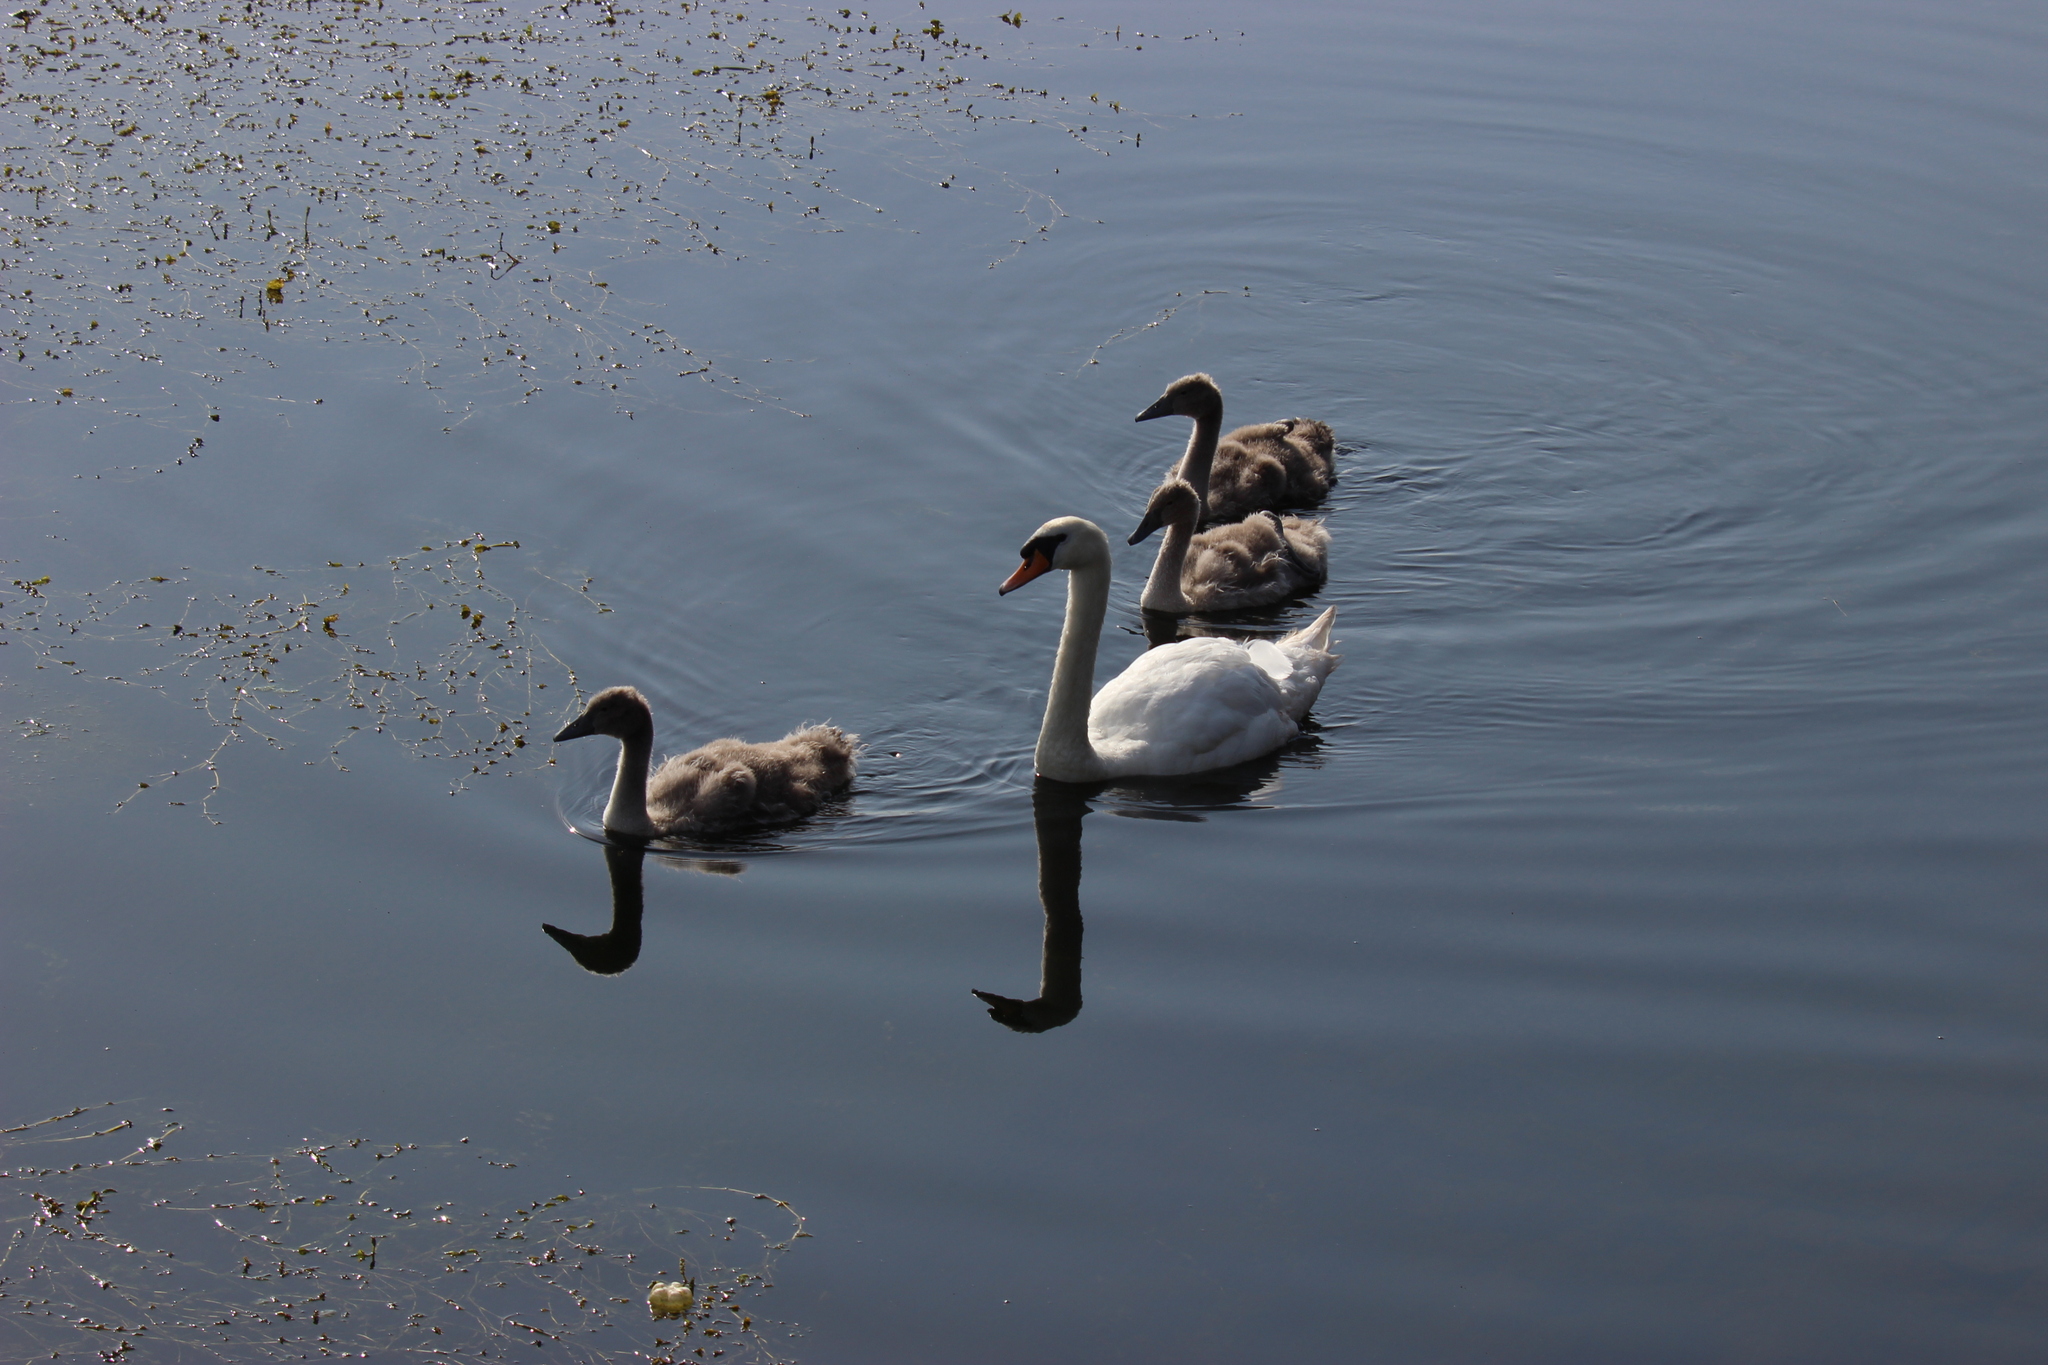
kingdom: Animalia
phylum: Chordata
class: Aves
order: Anseriformes
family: Anatidae
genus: Cygnus
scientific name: Cygnus olor
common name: Mute swan
